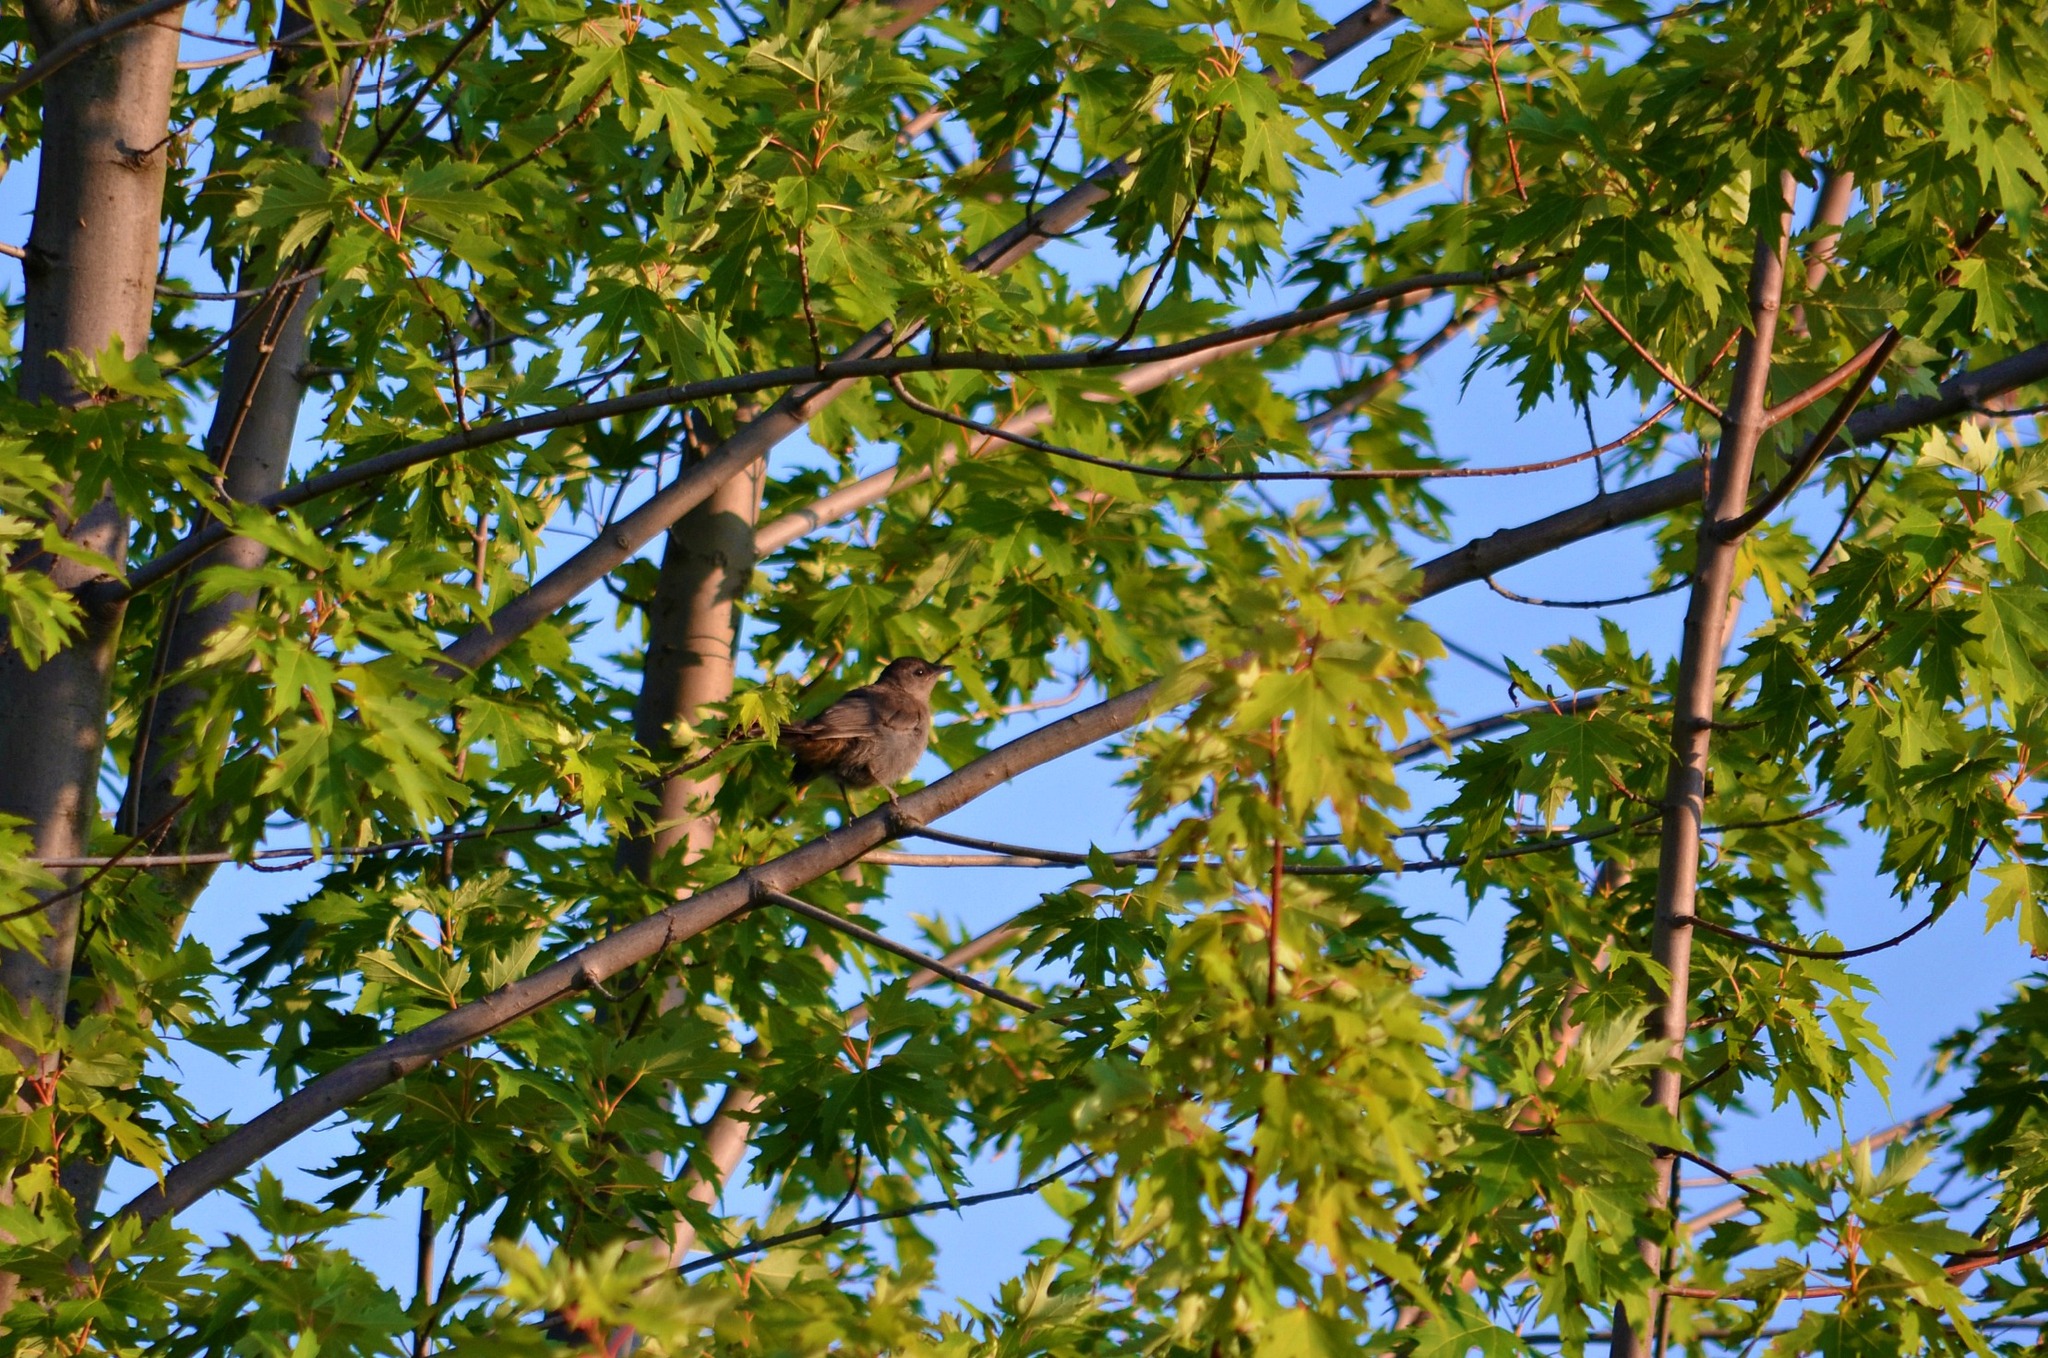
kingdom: Animalia
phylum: Chordata
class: Aves
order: Passeriformes
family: Mimidae
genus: Dumetella
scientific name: Dumetella carolinensis
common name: Gray catbird
